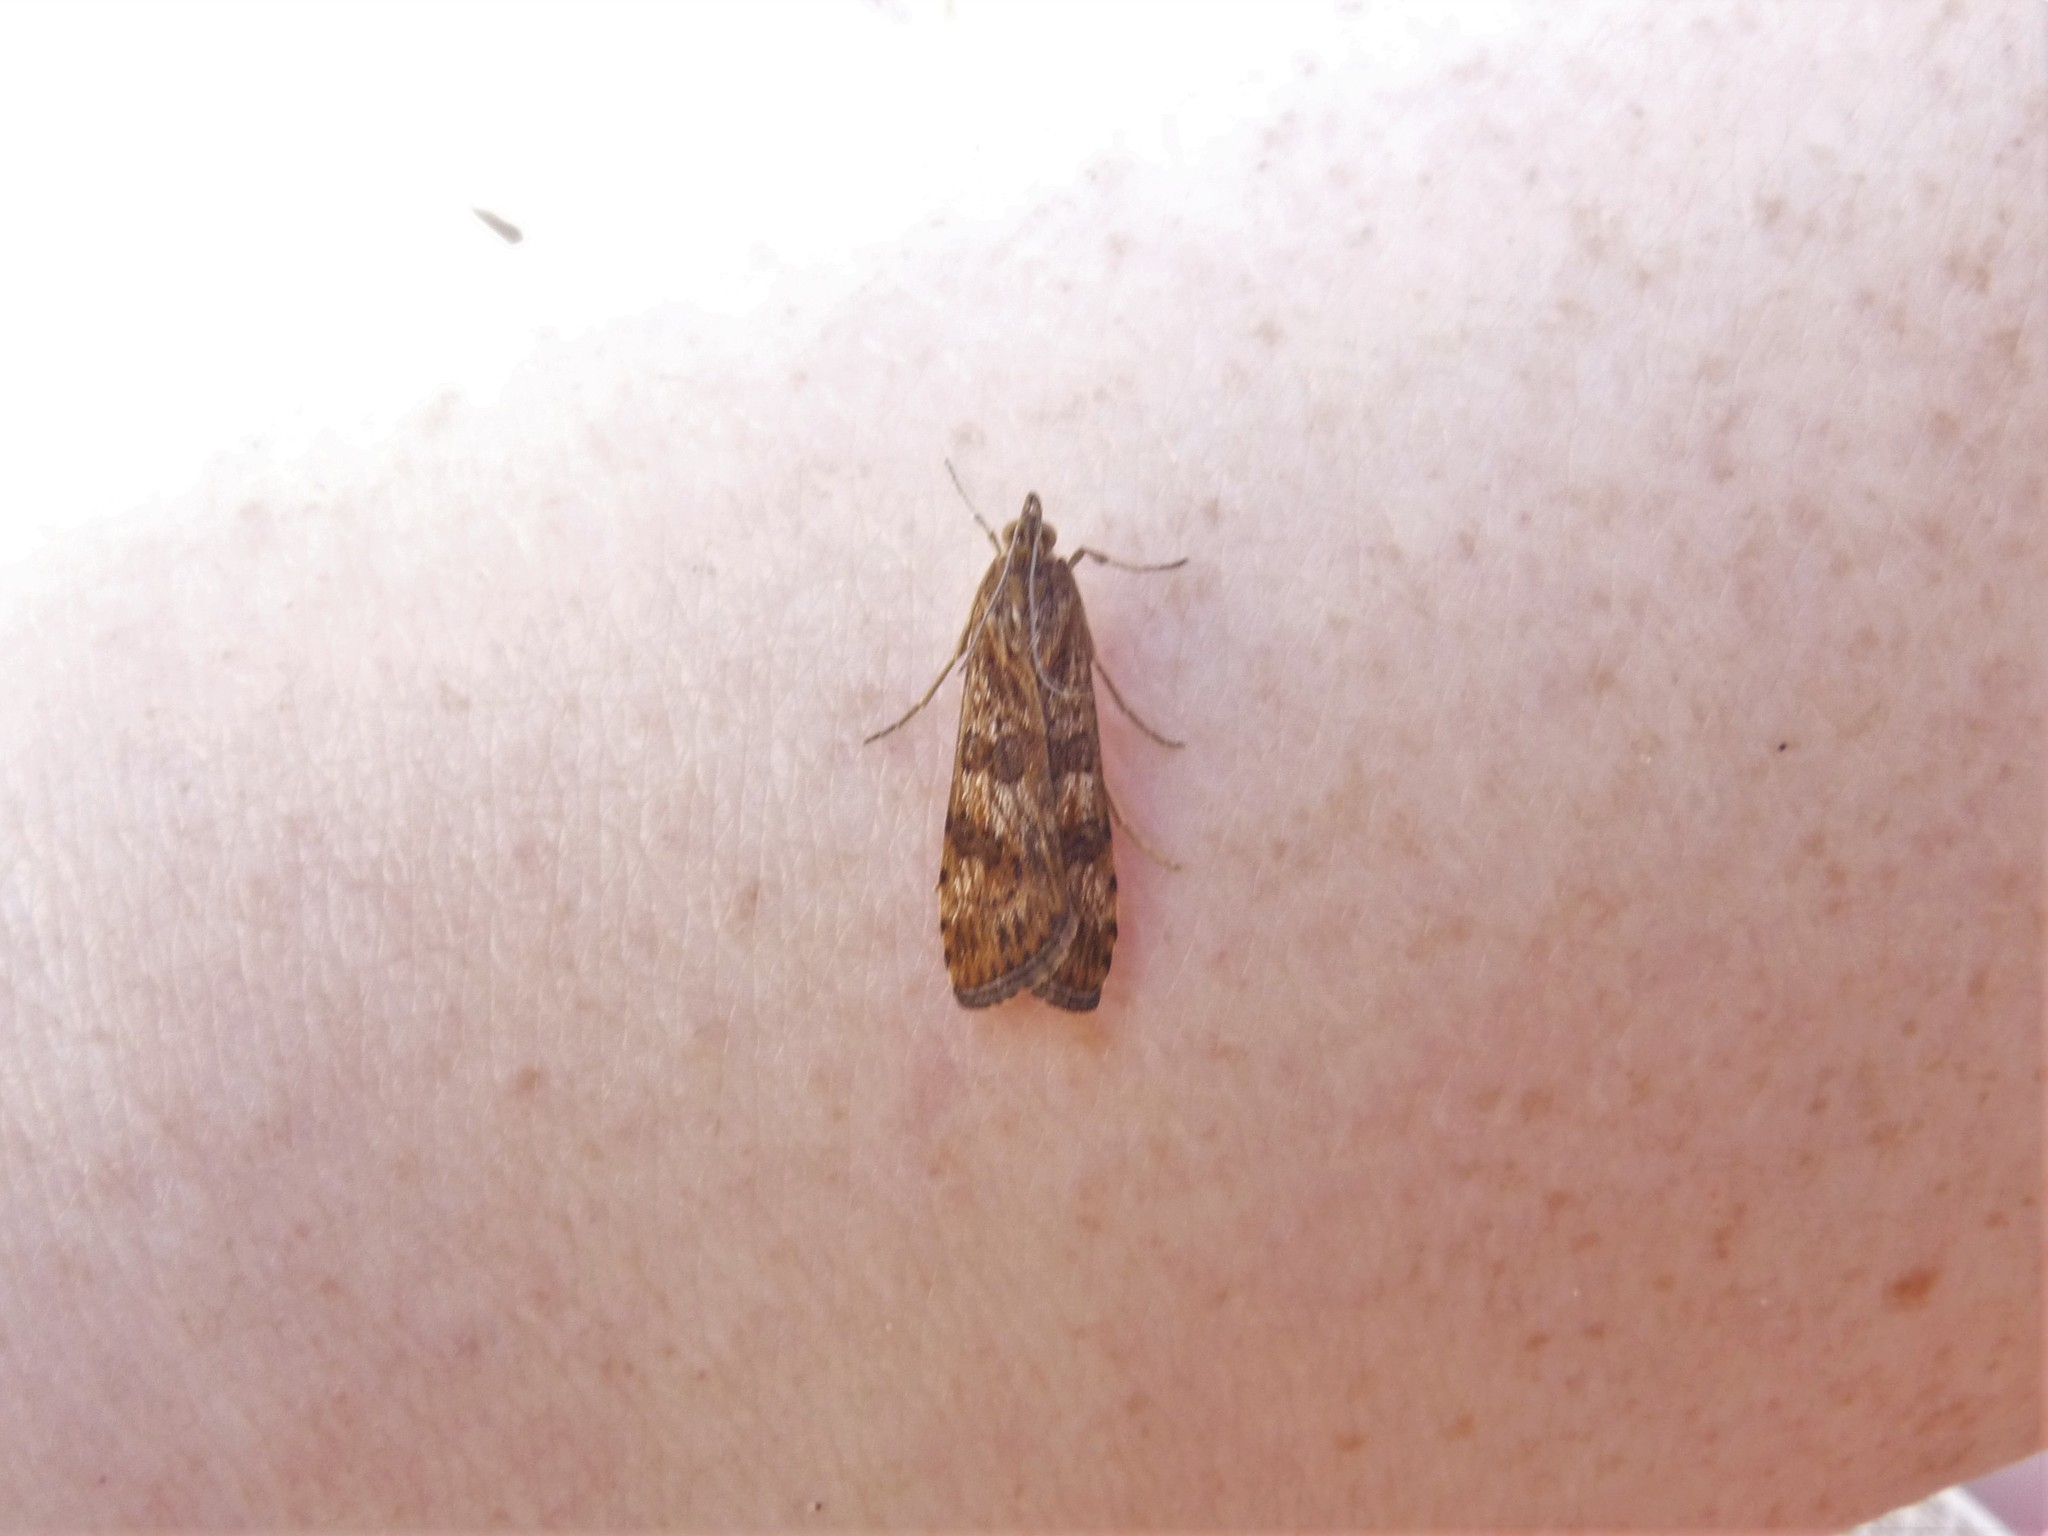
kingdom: Animalia
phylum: Arthropoda
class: Insecta
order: Lepidoptera
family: Crambidae
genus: Nomophila
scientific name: Nomophila noctuella
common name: Rush veneer
